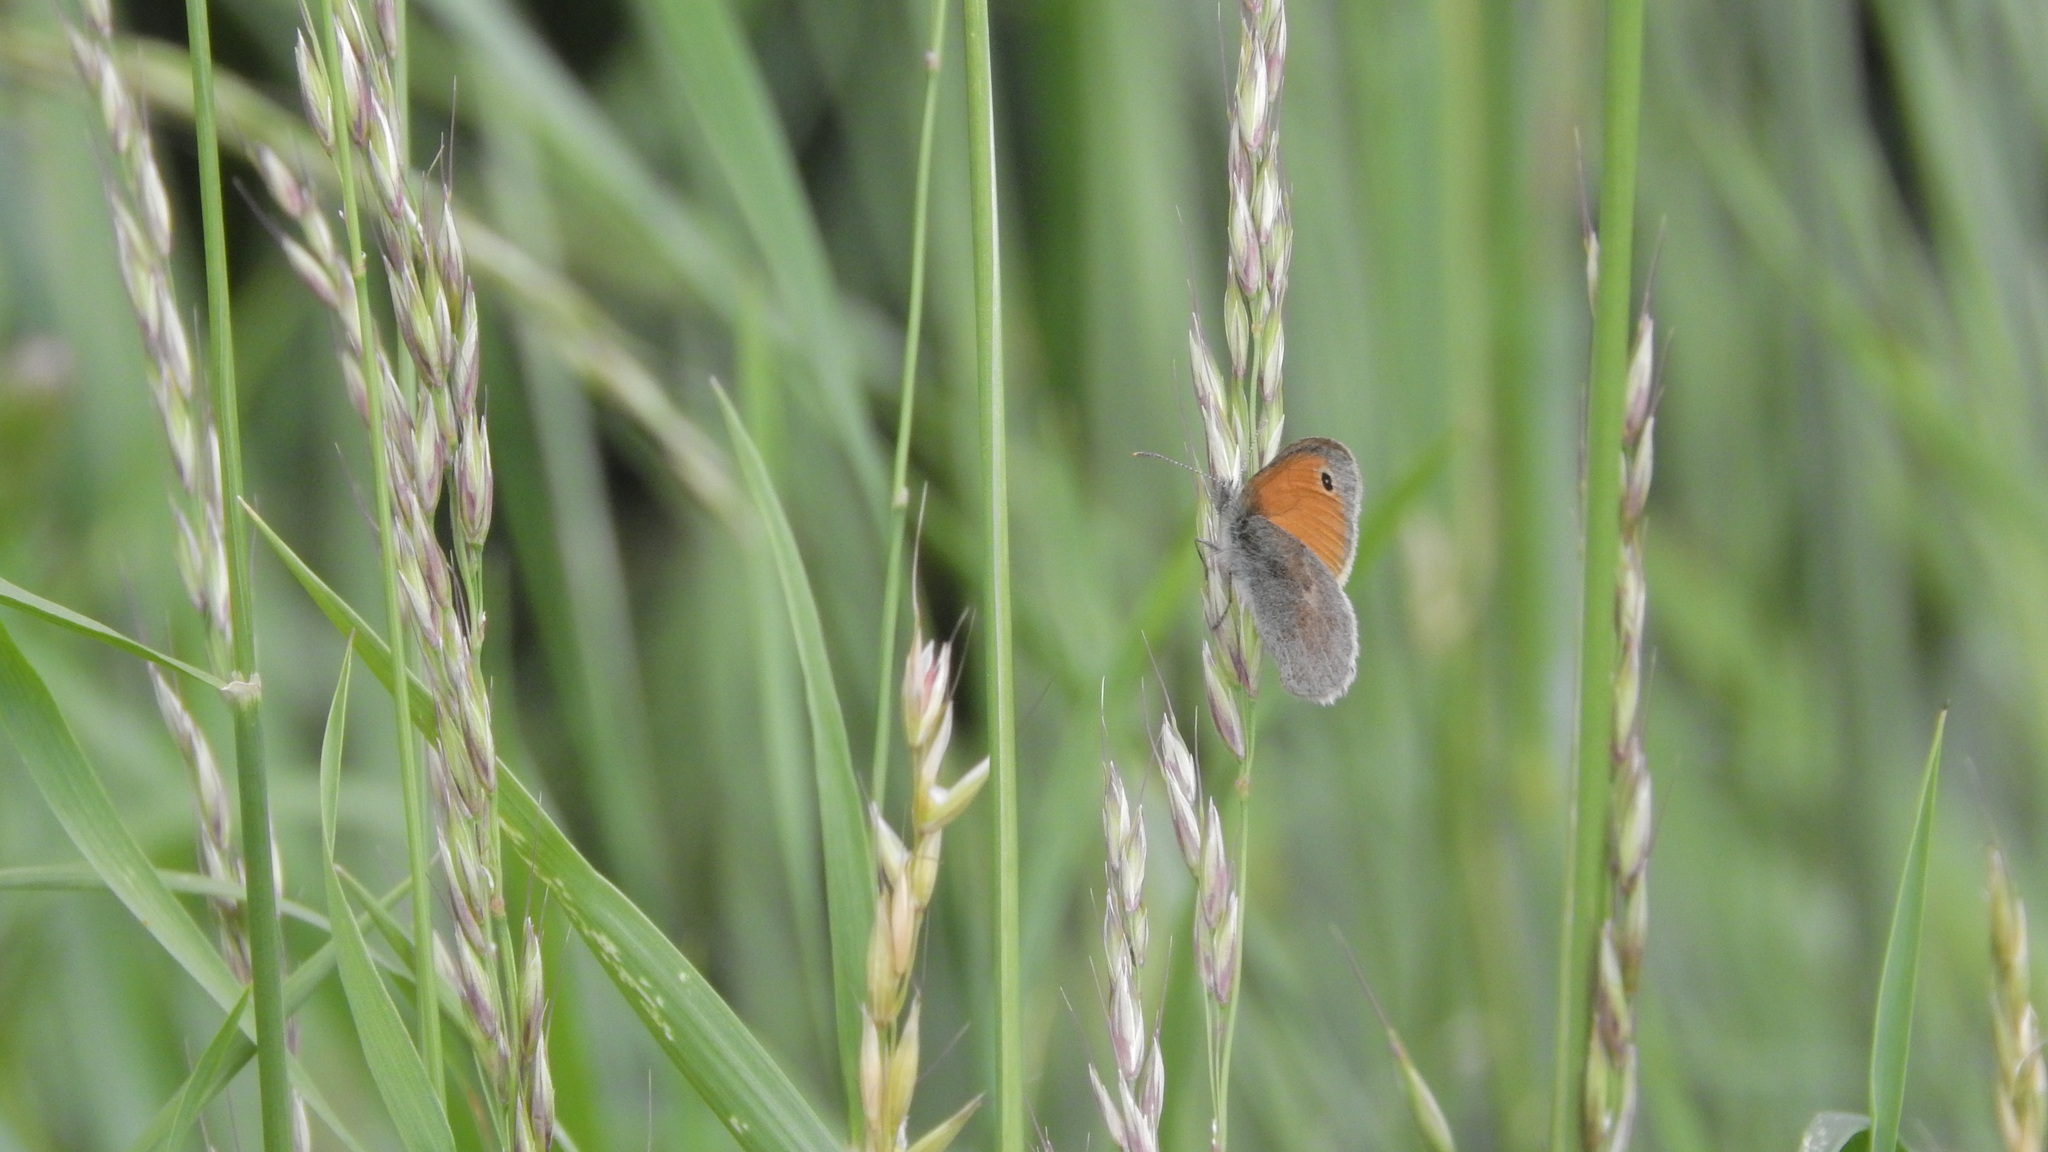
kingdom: Animalia
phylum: Arthropoda
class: Insecta
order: Lepidoptera
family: Nymphalidae
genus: Coenonympha
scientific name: Coenonympha pamphilus
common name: Small heath
